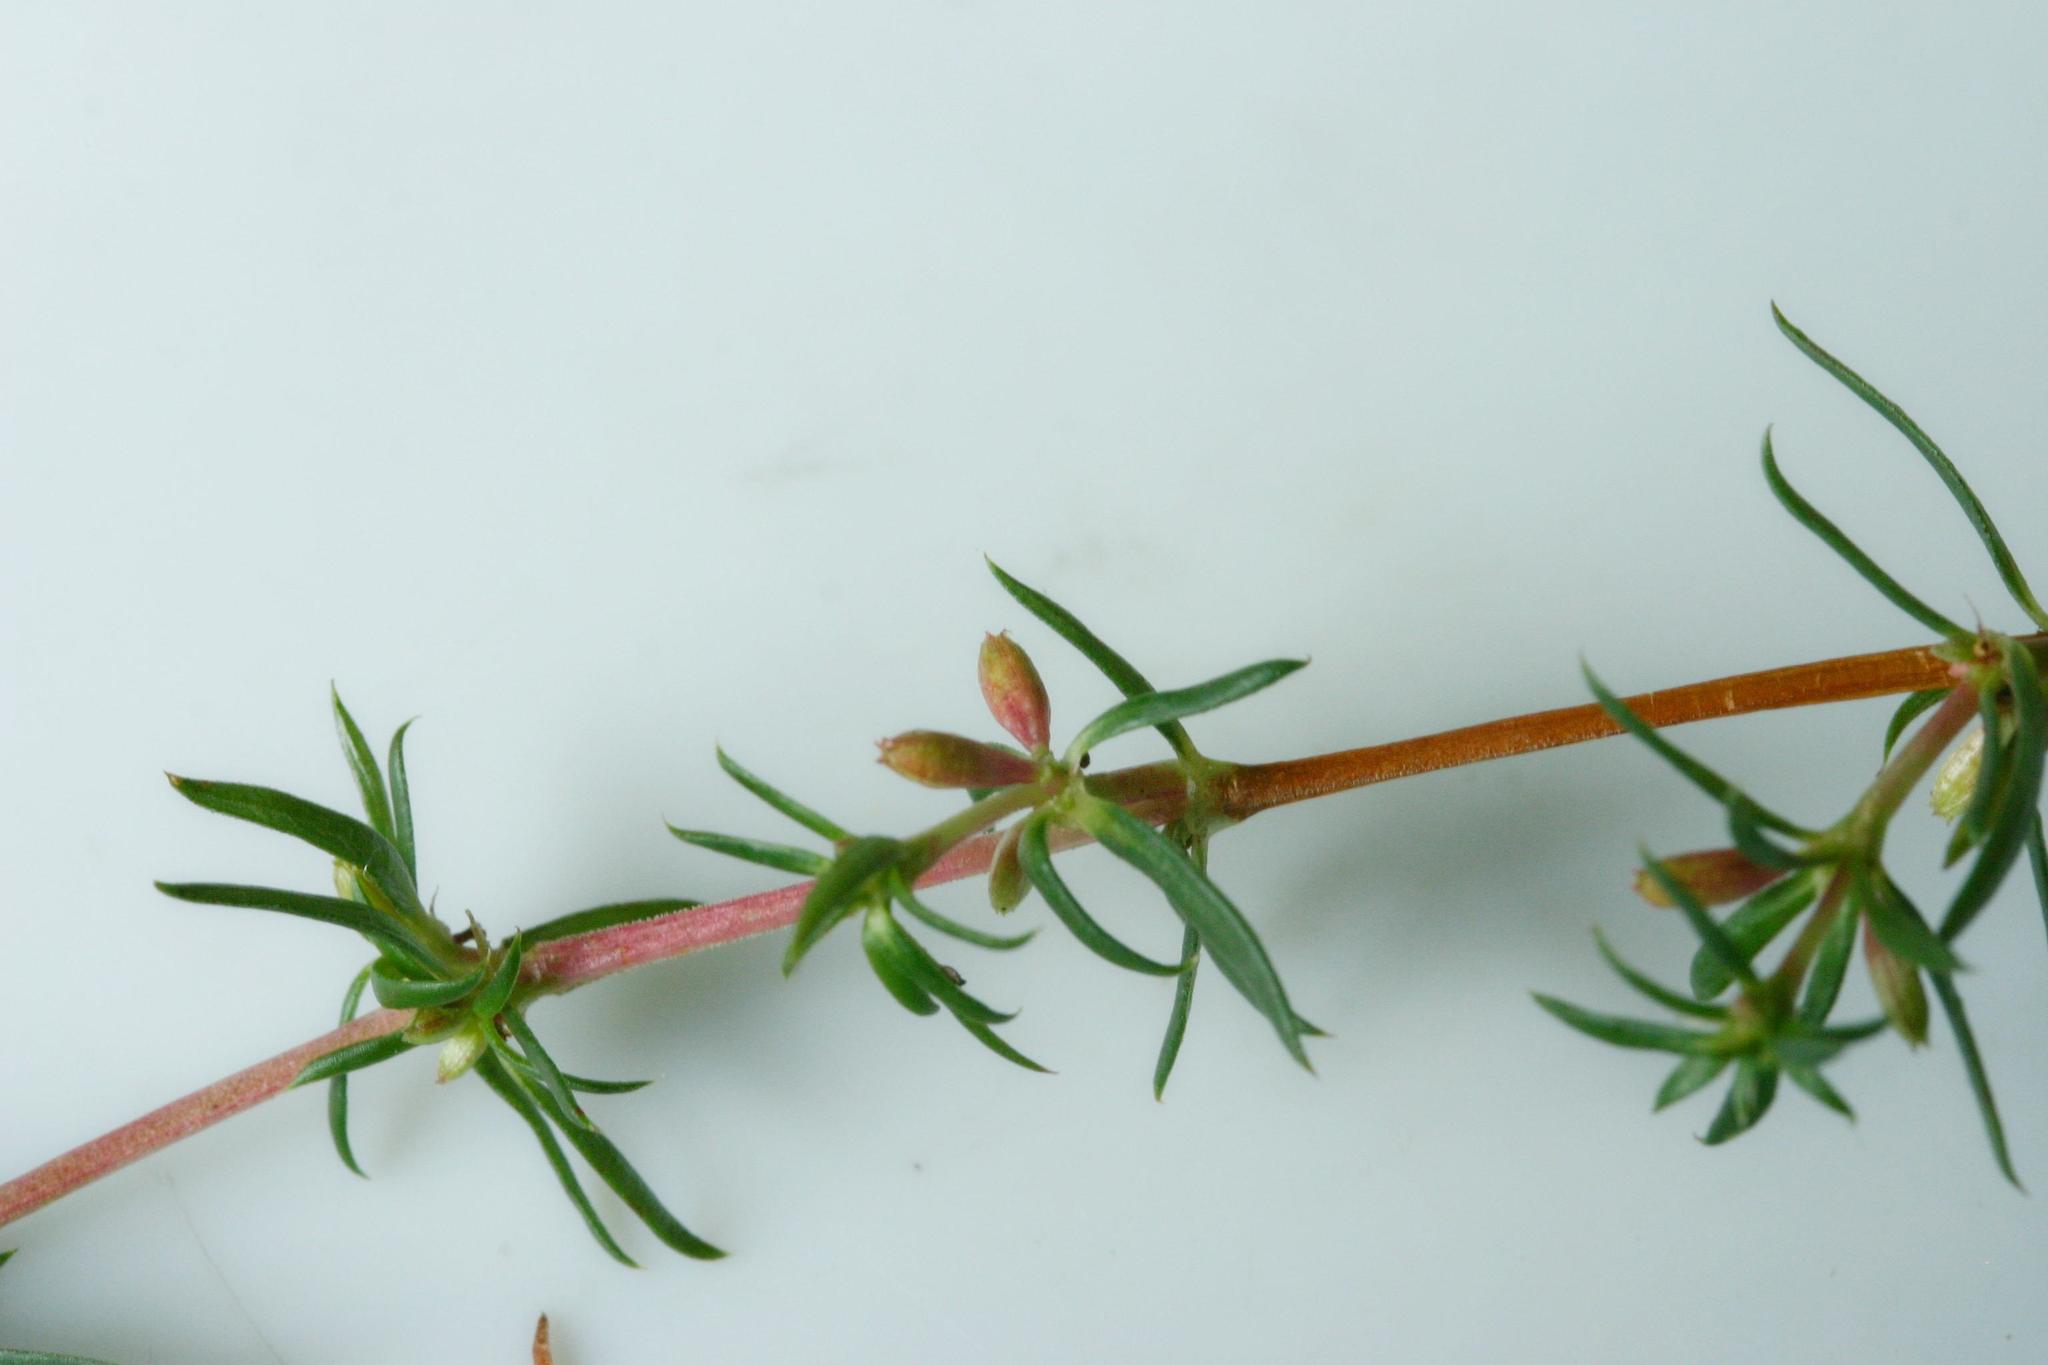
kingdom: Plantae
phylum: Tracheophyta
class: Magnoliopsida
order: Gentianales
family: Rubiaceae
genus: Anthospermum
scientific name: Anthospermum galioides
